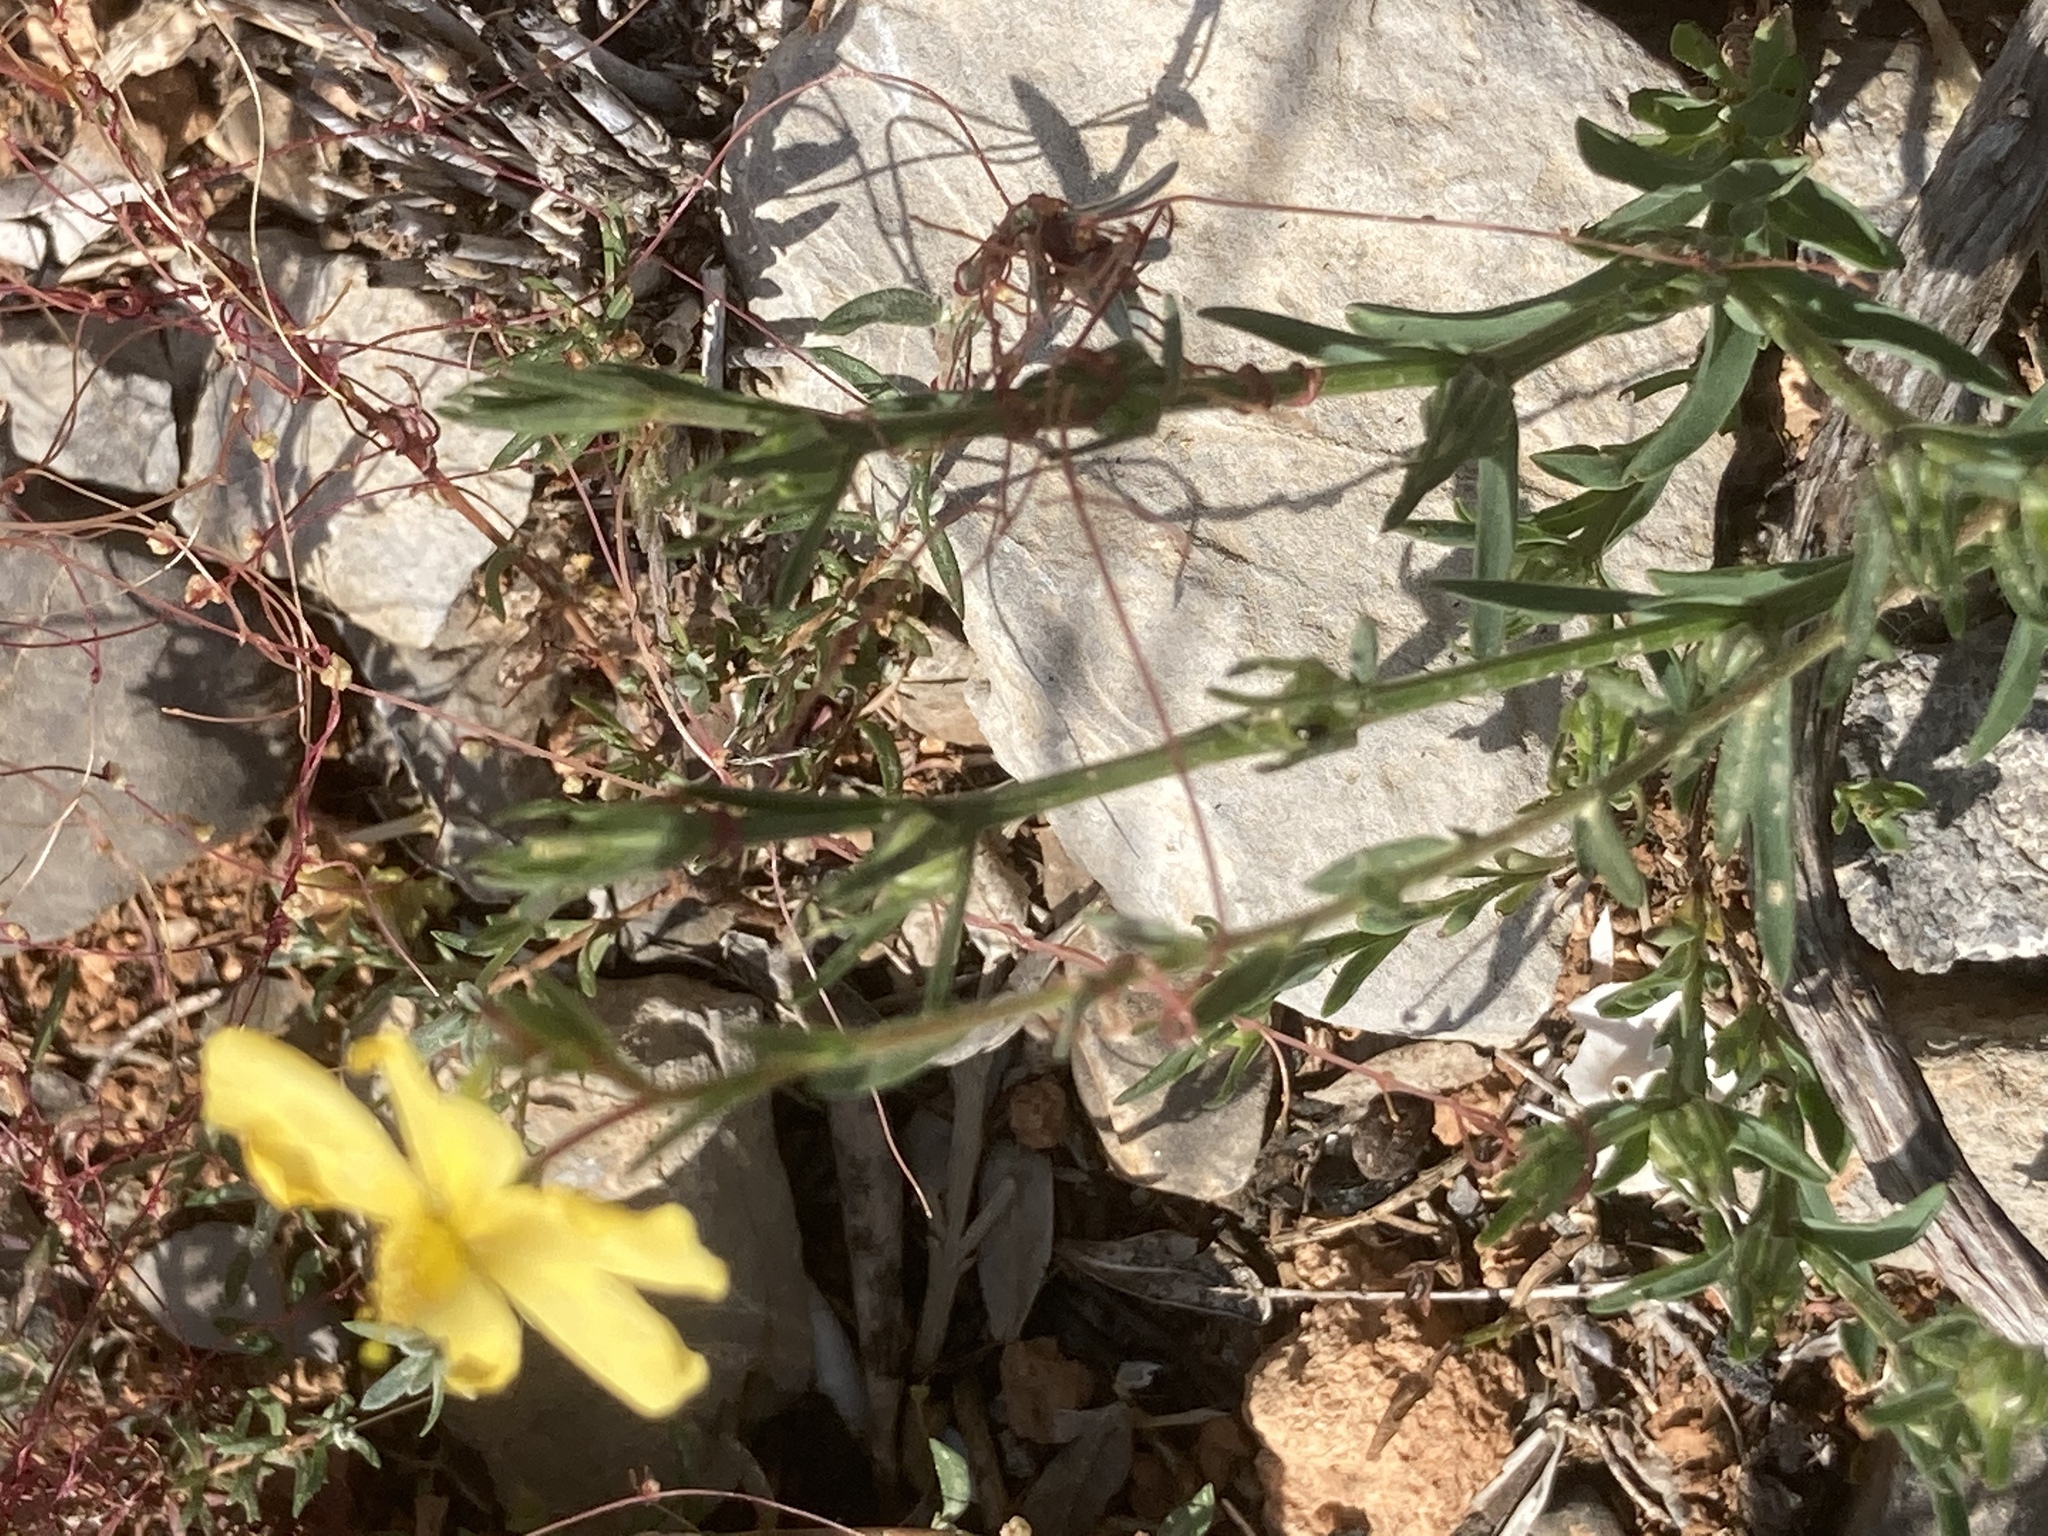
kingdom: Plantae
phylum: Tracheophyta
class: Magnoliopsida
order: Malvales
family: Cistaceae
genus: Fumana
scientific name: Fumana arabica
